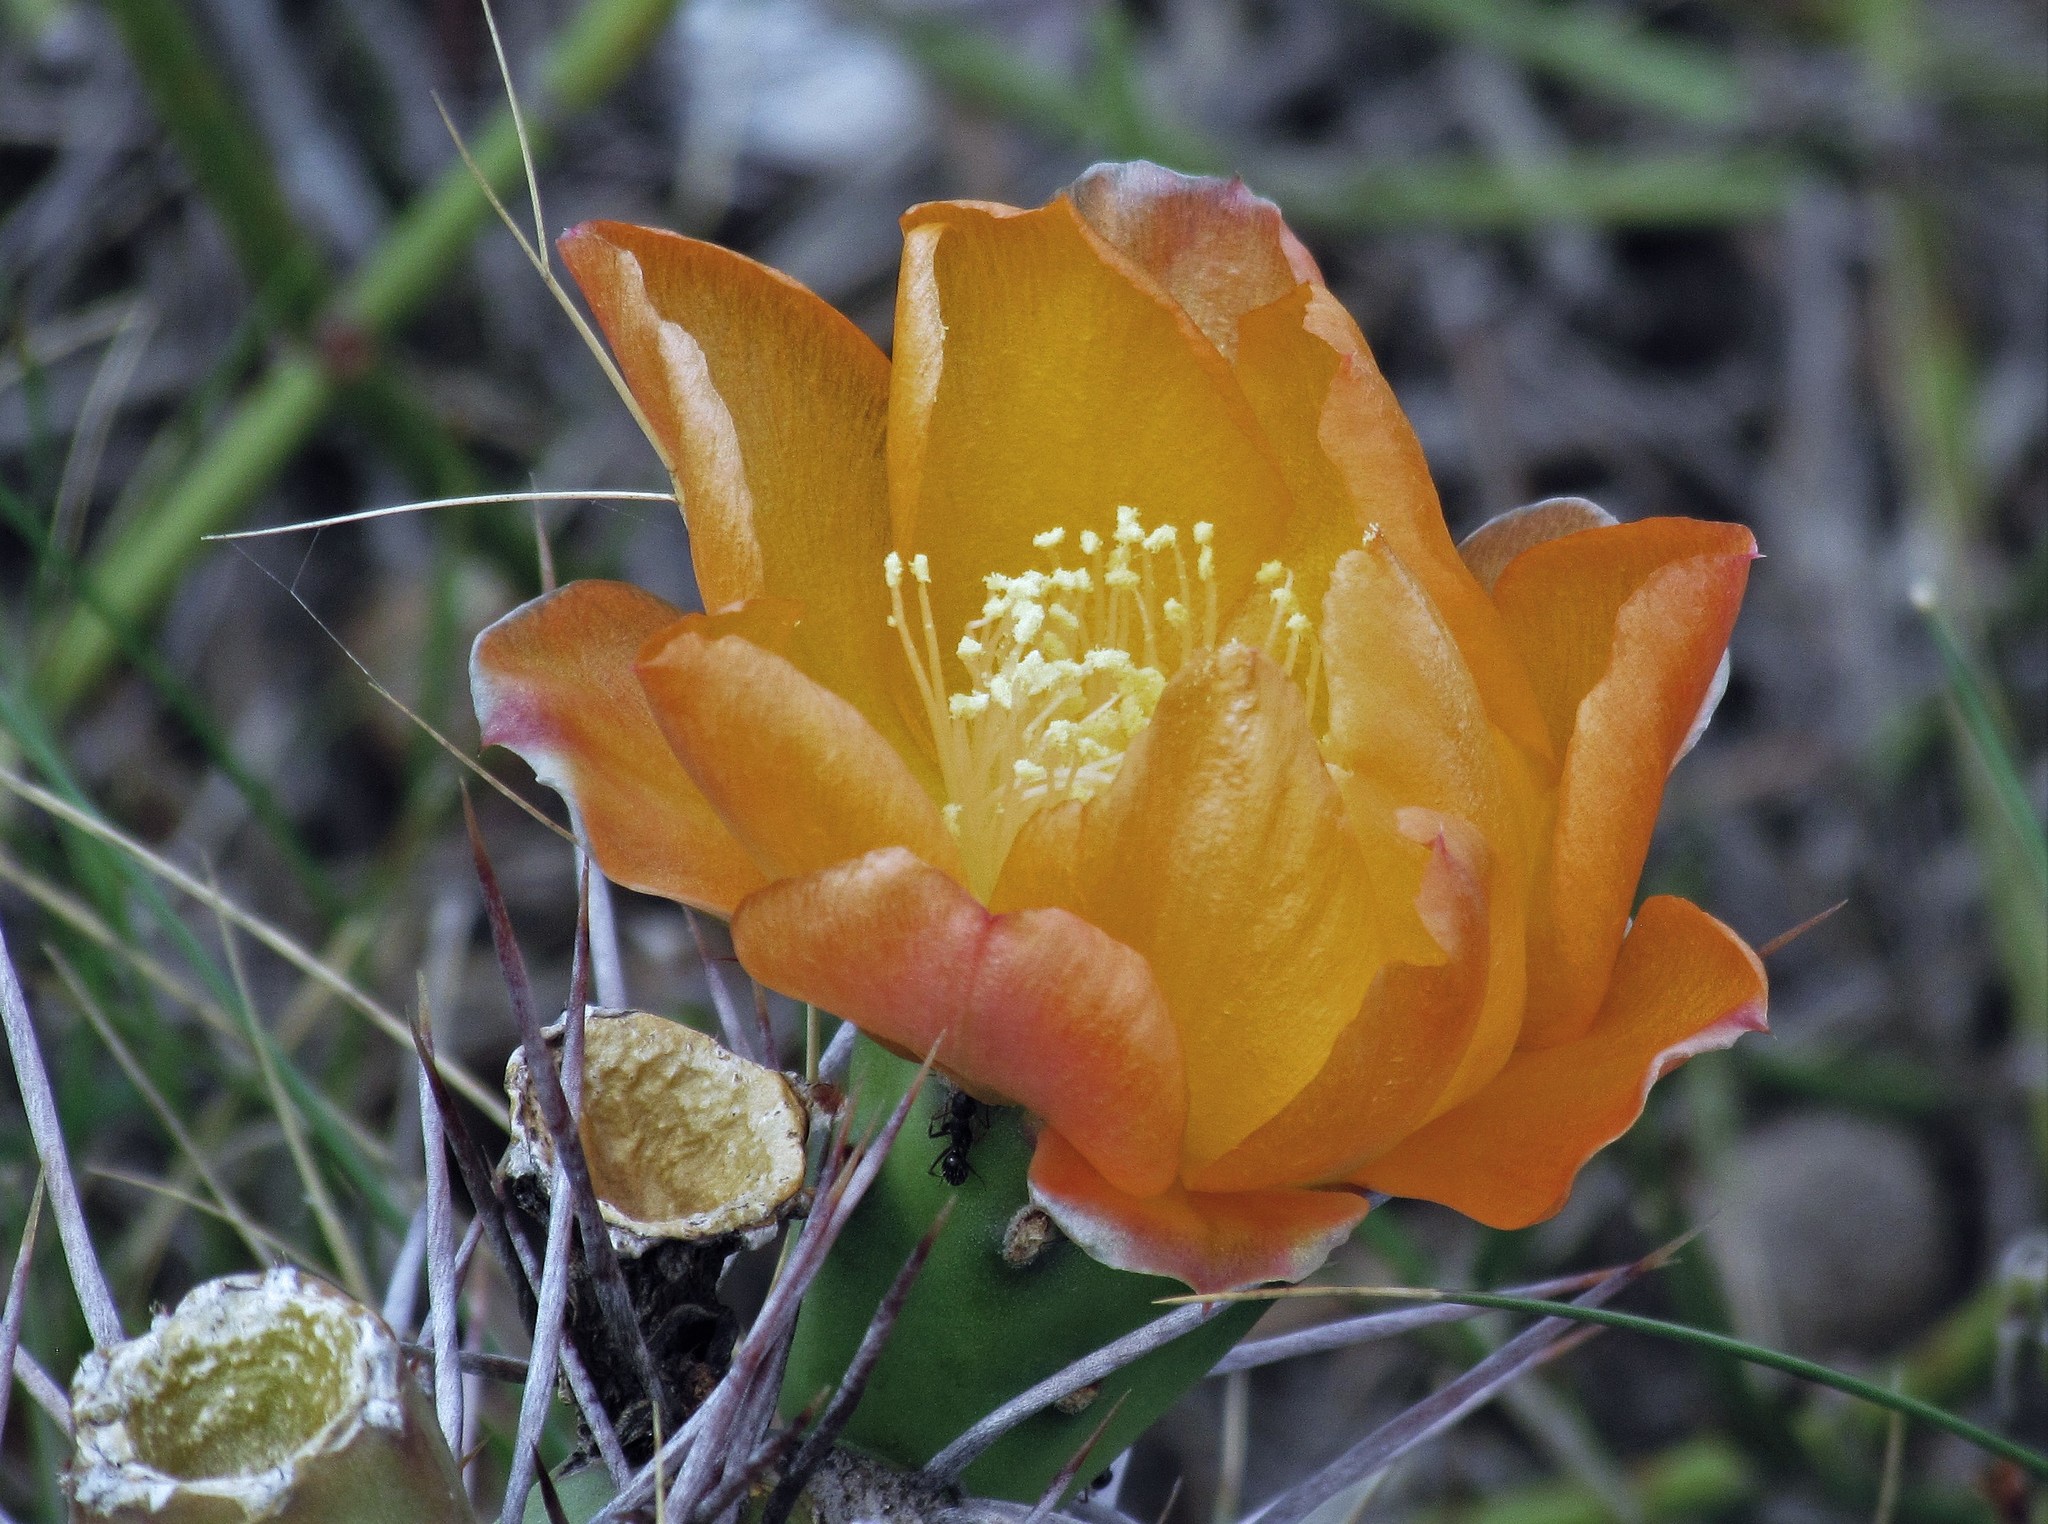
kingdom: Plantae
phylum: Tracheophyta
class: Magnoliopsida
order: Caryophyllales
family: Cactaceae
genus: Opuntia
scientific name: Opuntia sulphurea
